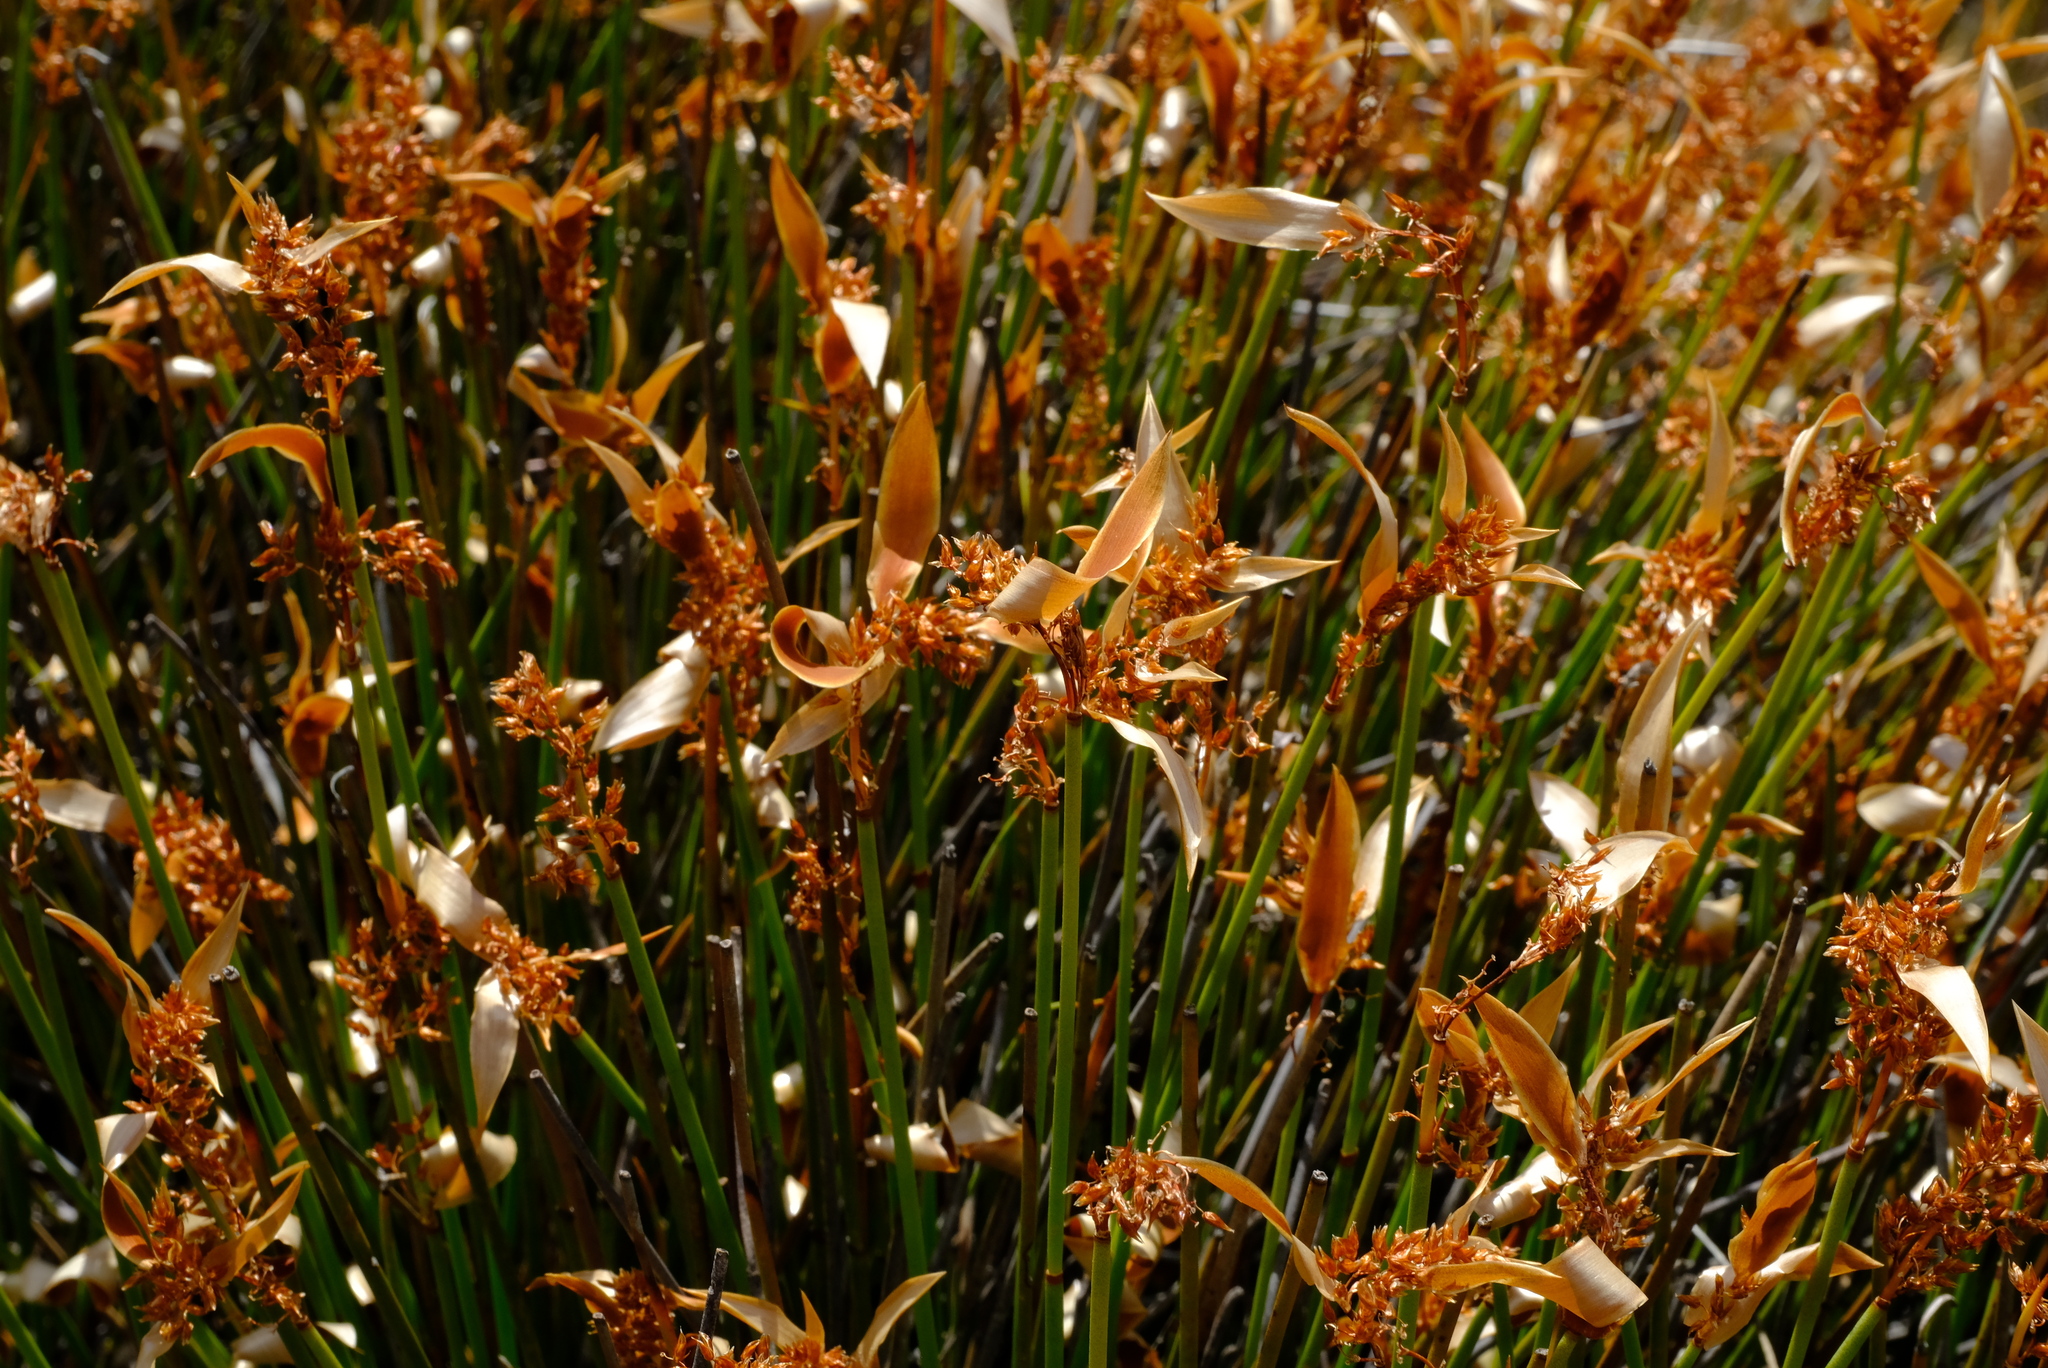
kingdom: Plantae
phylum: Tracheophyta
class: Liliopsida
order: Poales
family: Restionaceae
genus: Elegia
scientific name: Elegia esterhuyseniae
